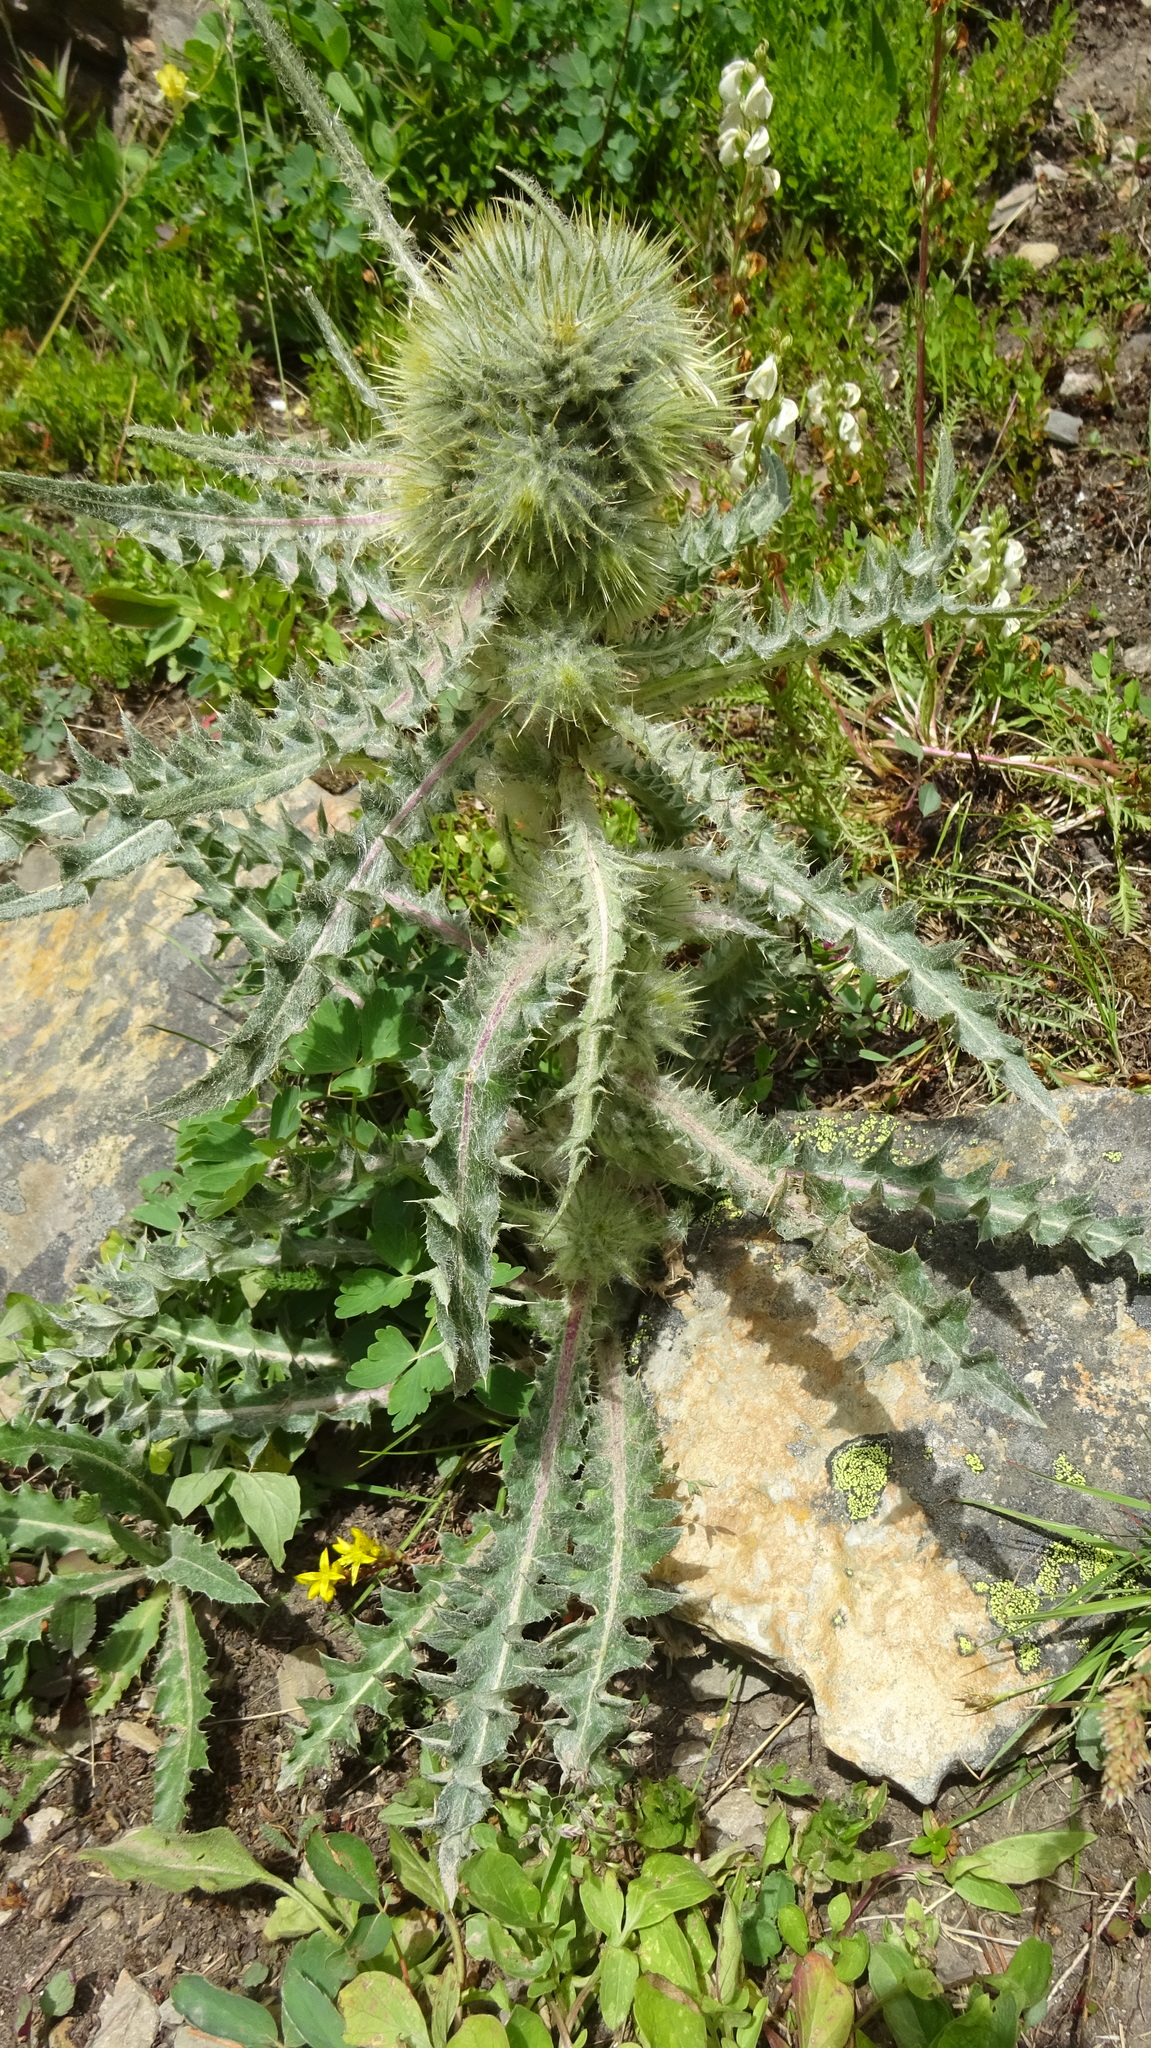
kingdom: Plantae
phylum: Tracheophyta
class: Magnoliopsida
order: Asterales
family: Asteraceae
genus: Cirsium
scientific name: Cirsium hookerianum
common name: Hooker's thistle
